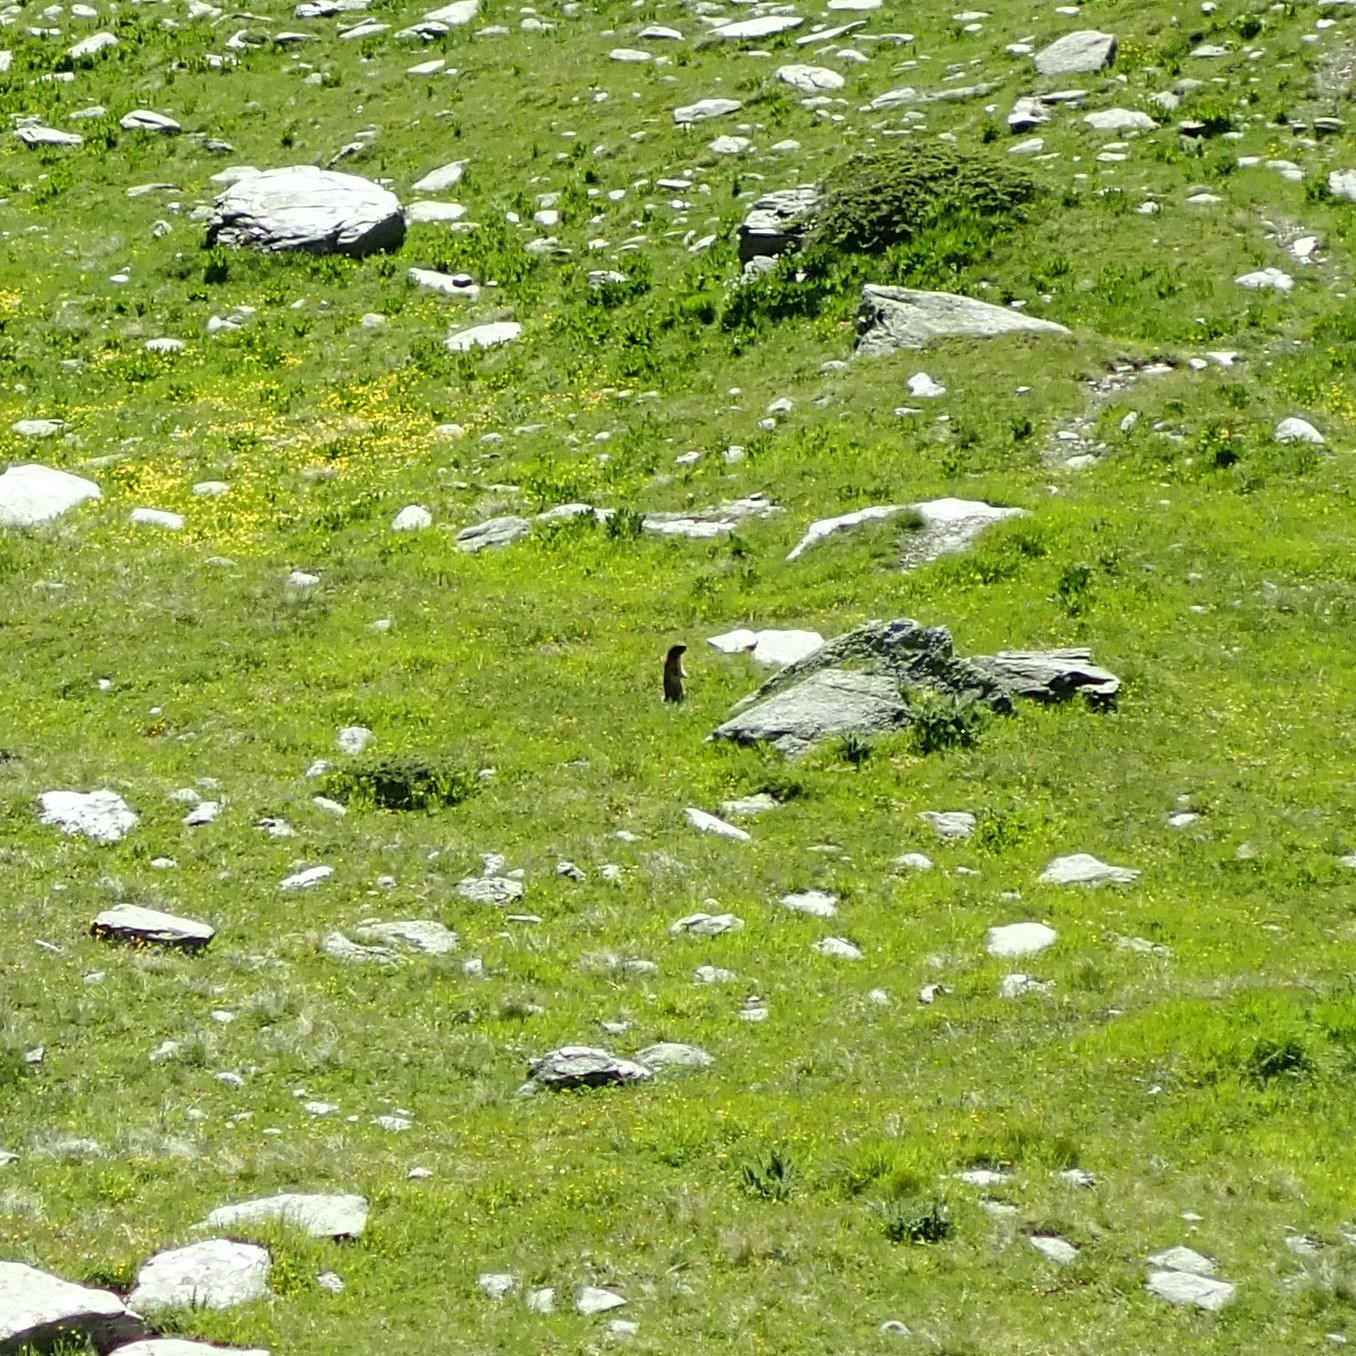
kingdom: Animalia
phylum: Chordata
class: Mammalia
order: Rodentia
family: Sciuridae
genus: Marmota
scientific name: Marmota marmota
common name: Alpine marmot
